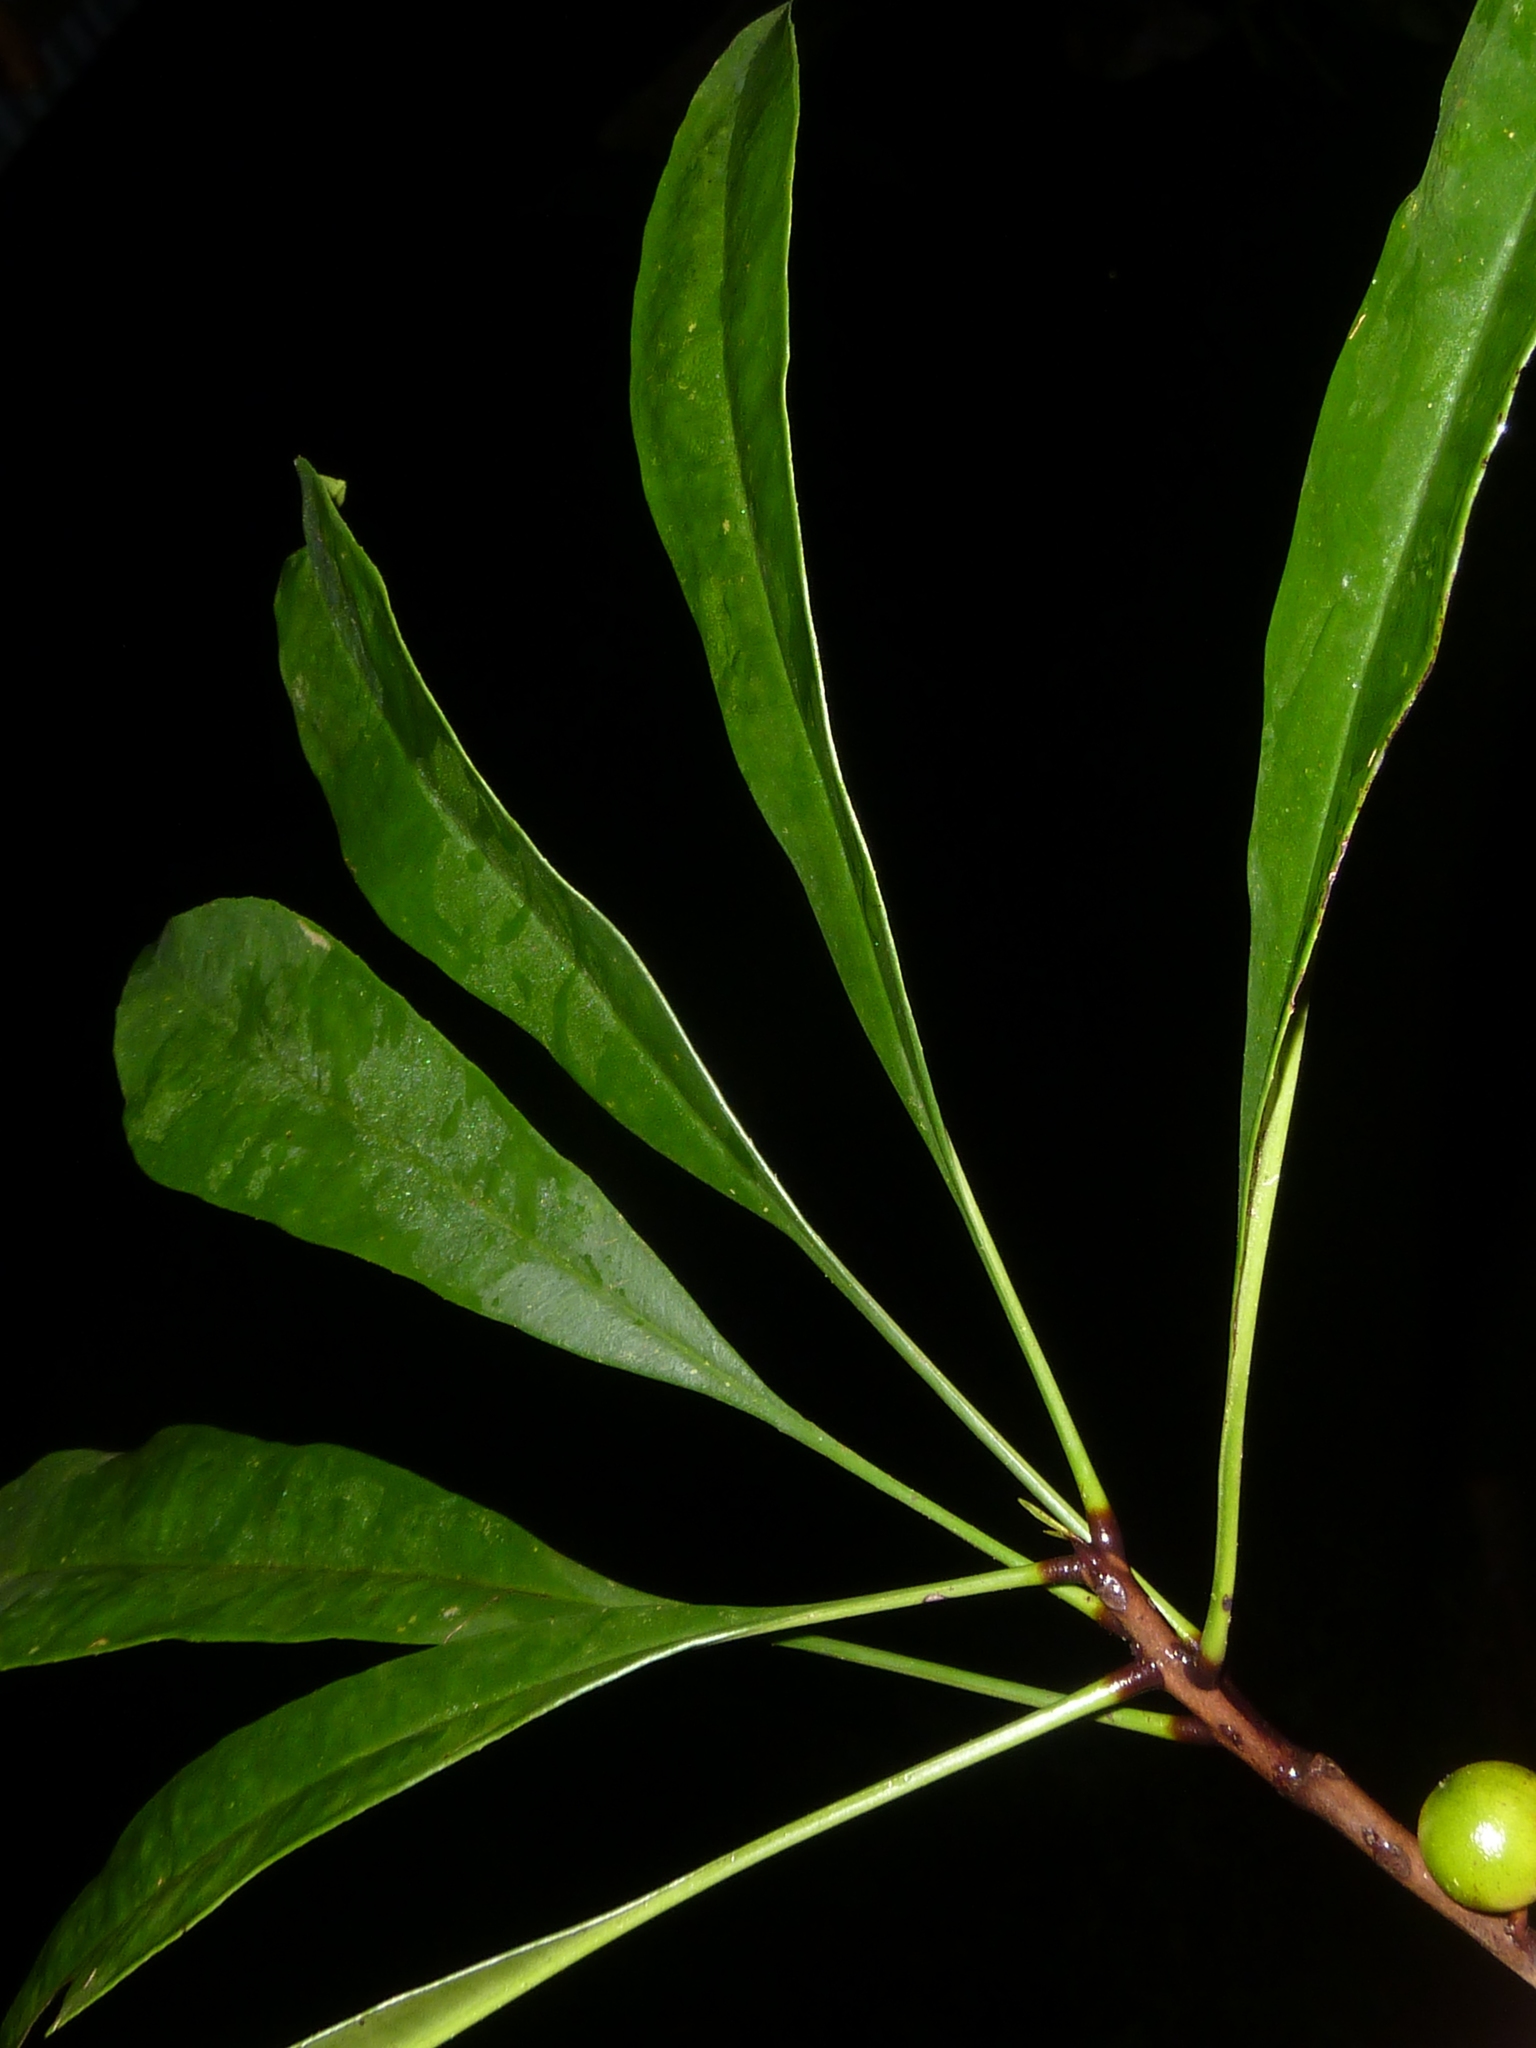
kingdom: Plantae
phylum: Tracheophyta
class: Magnoliopsida
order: Ericales
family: Primulaceae
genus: Clavija
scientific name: Clavija biborrana
